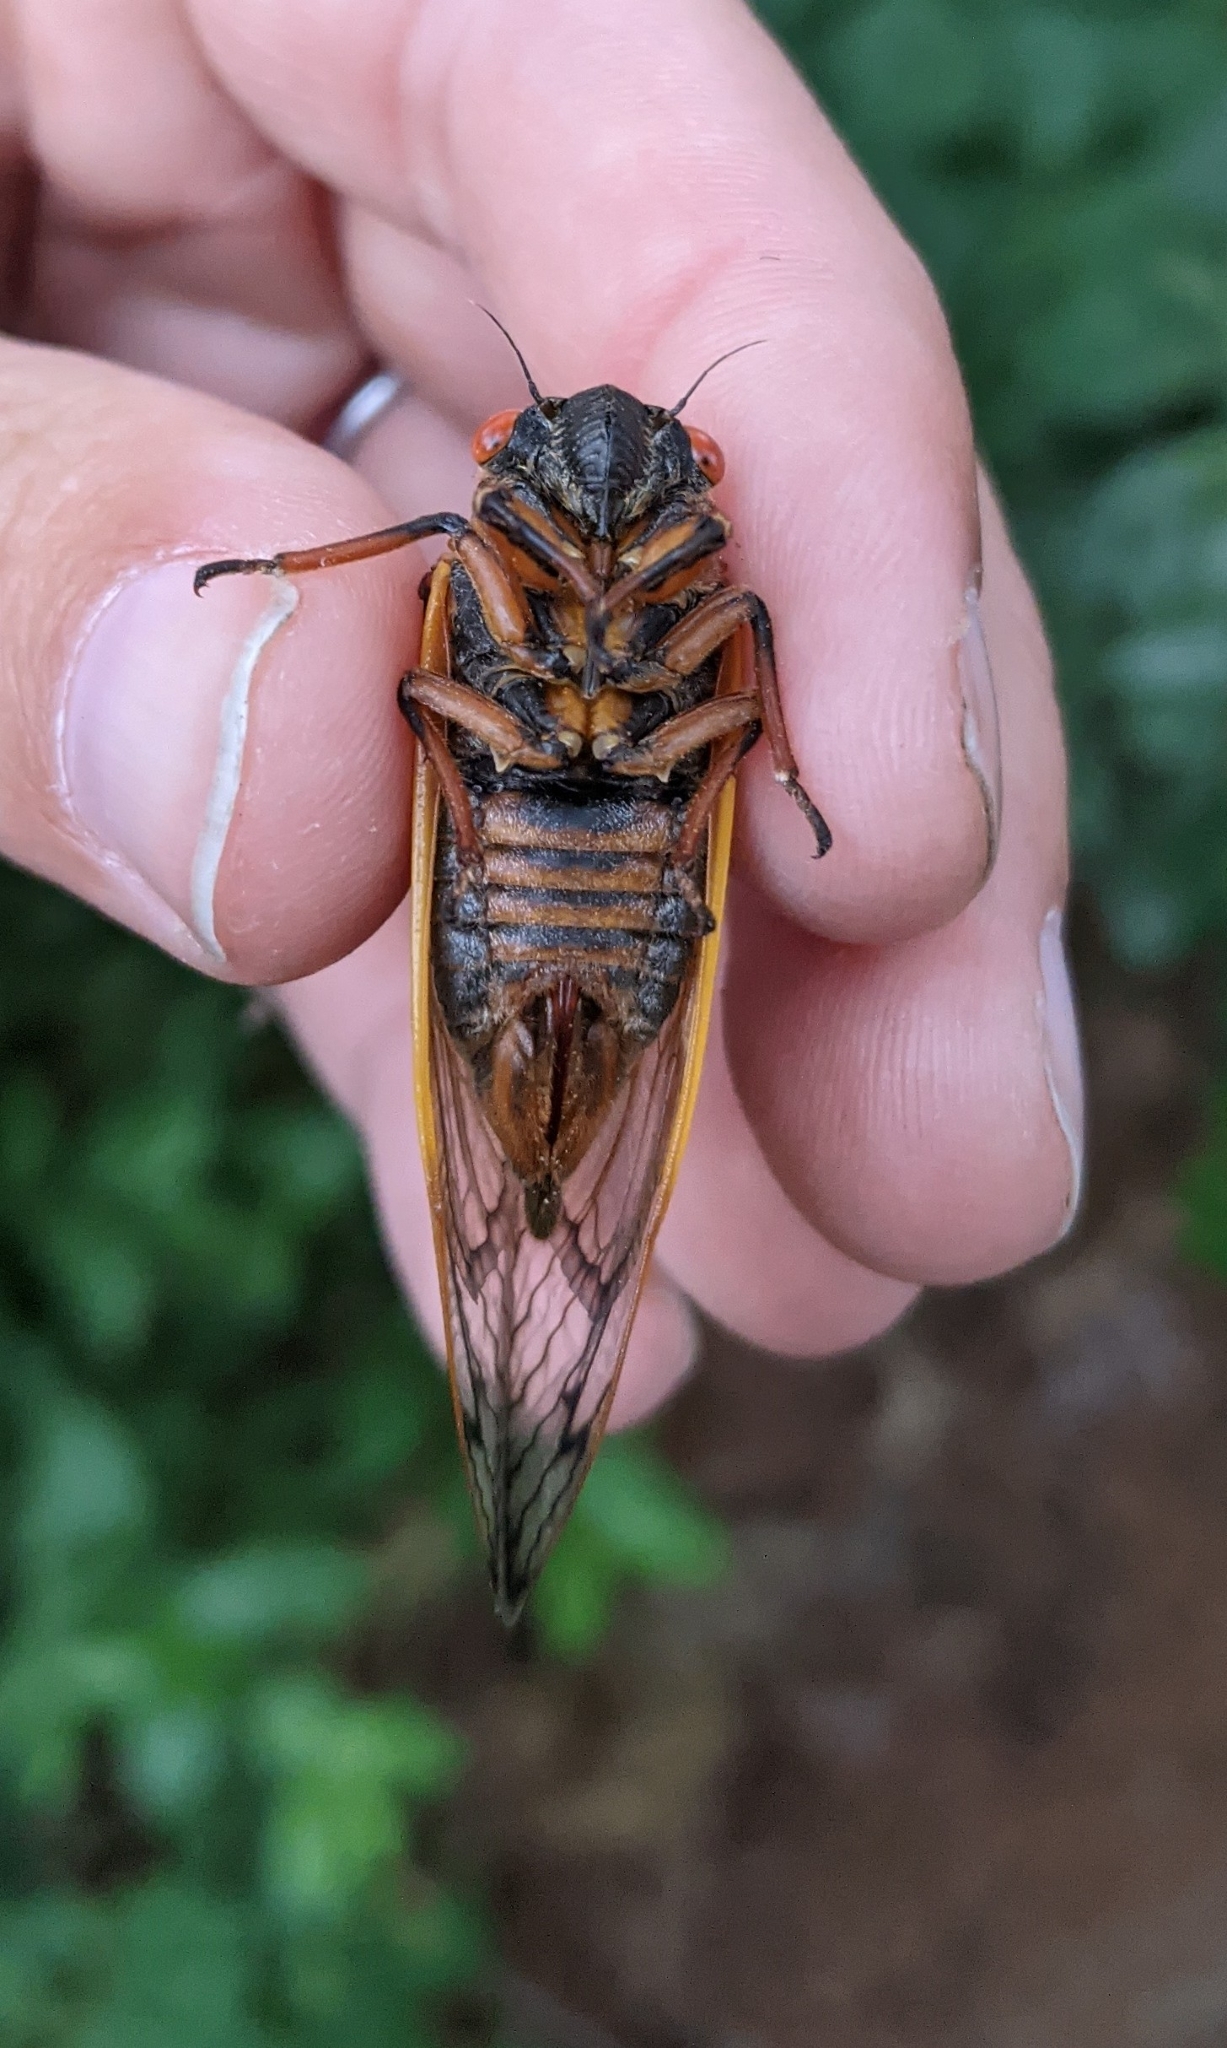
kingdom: Animalia
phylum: Arthropoda
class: Insecta
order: Hemiptera
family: Cicadidae
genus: Magicicada
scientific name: Magicicada septendecim
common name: Periodical cicada
